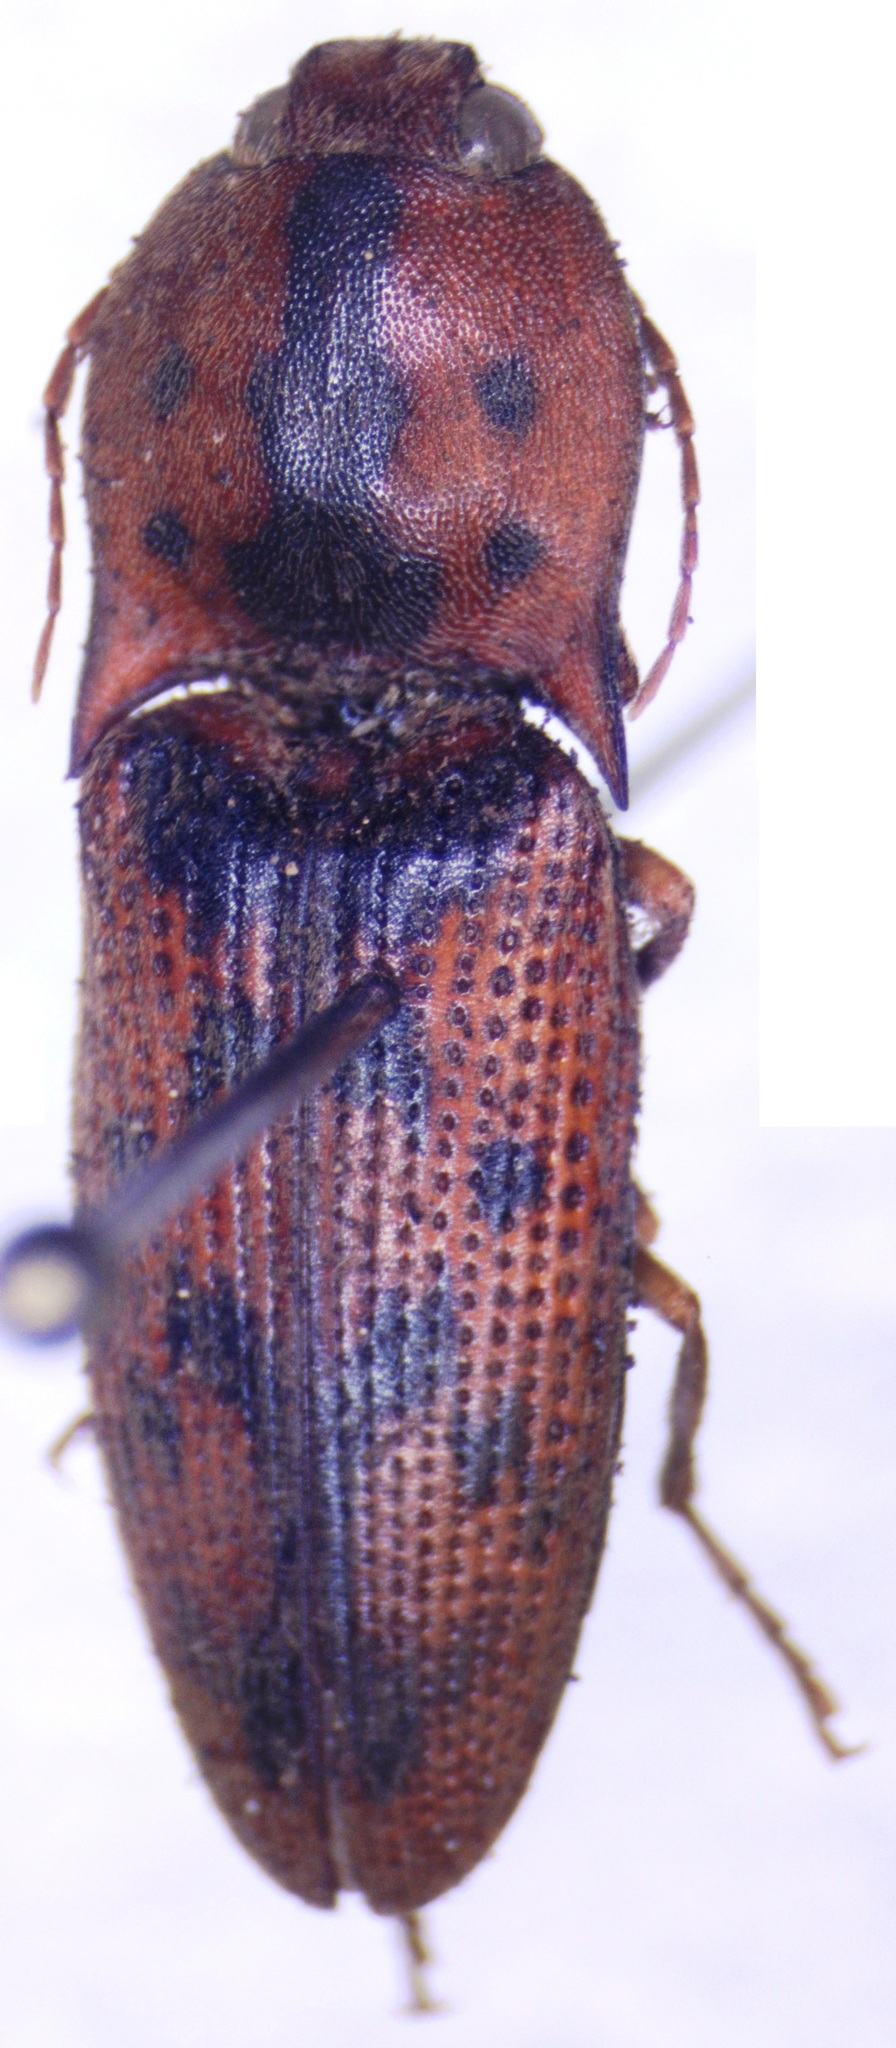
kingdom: Animalia
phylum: Arthropoda
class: Insecta
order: Coleoptera
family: Elateridae
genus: Monocrepidius
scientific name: Monocrepidius pilatei
